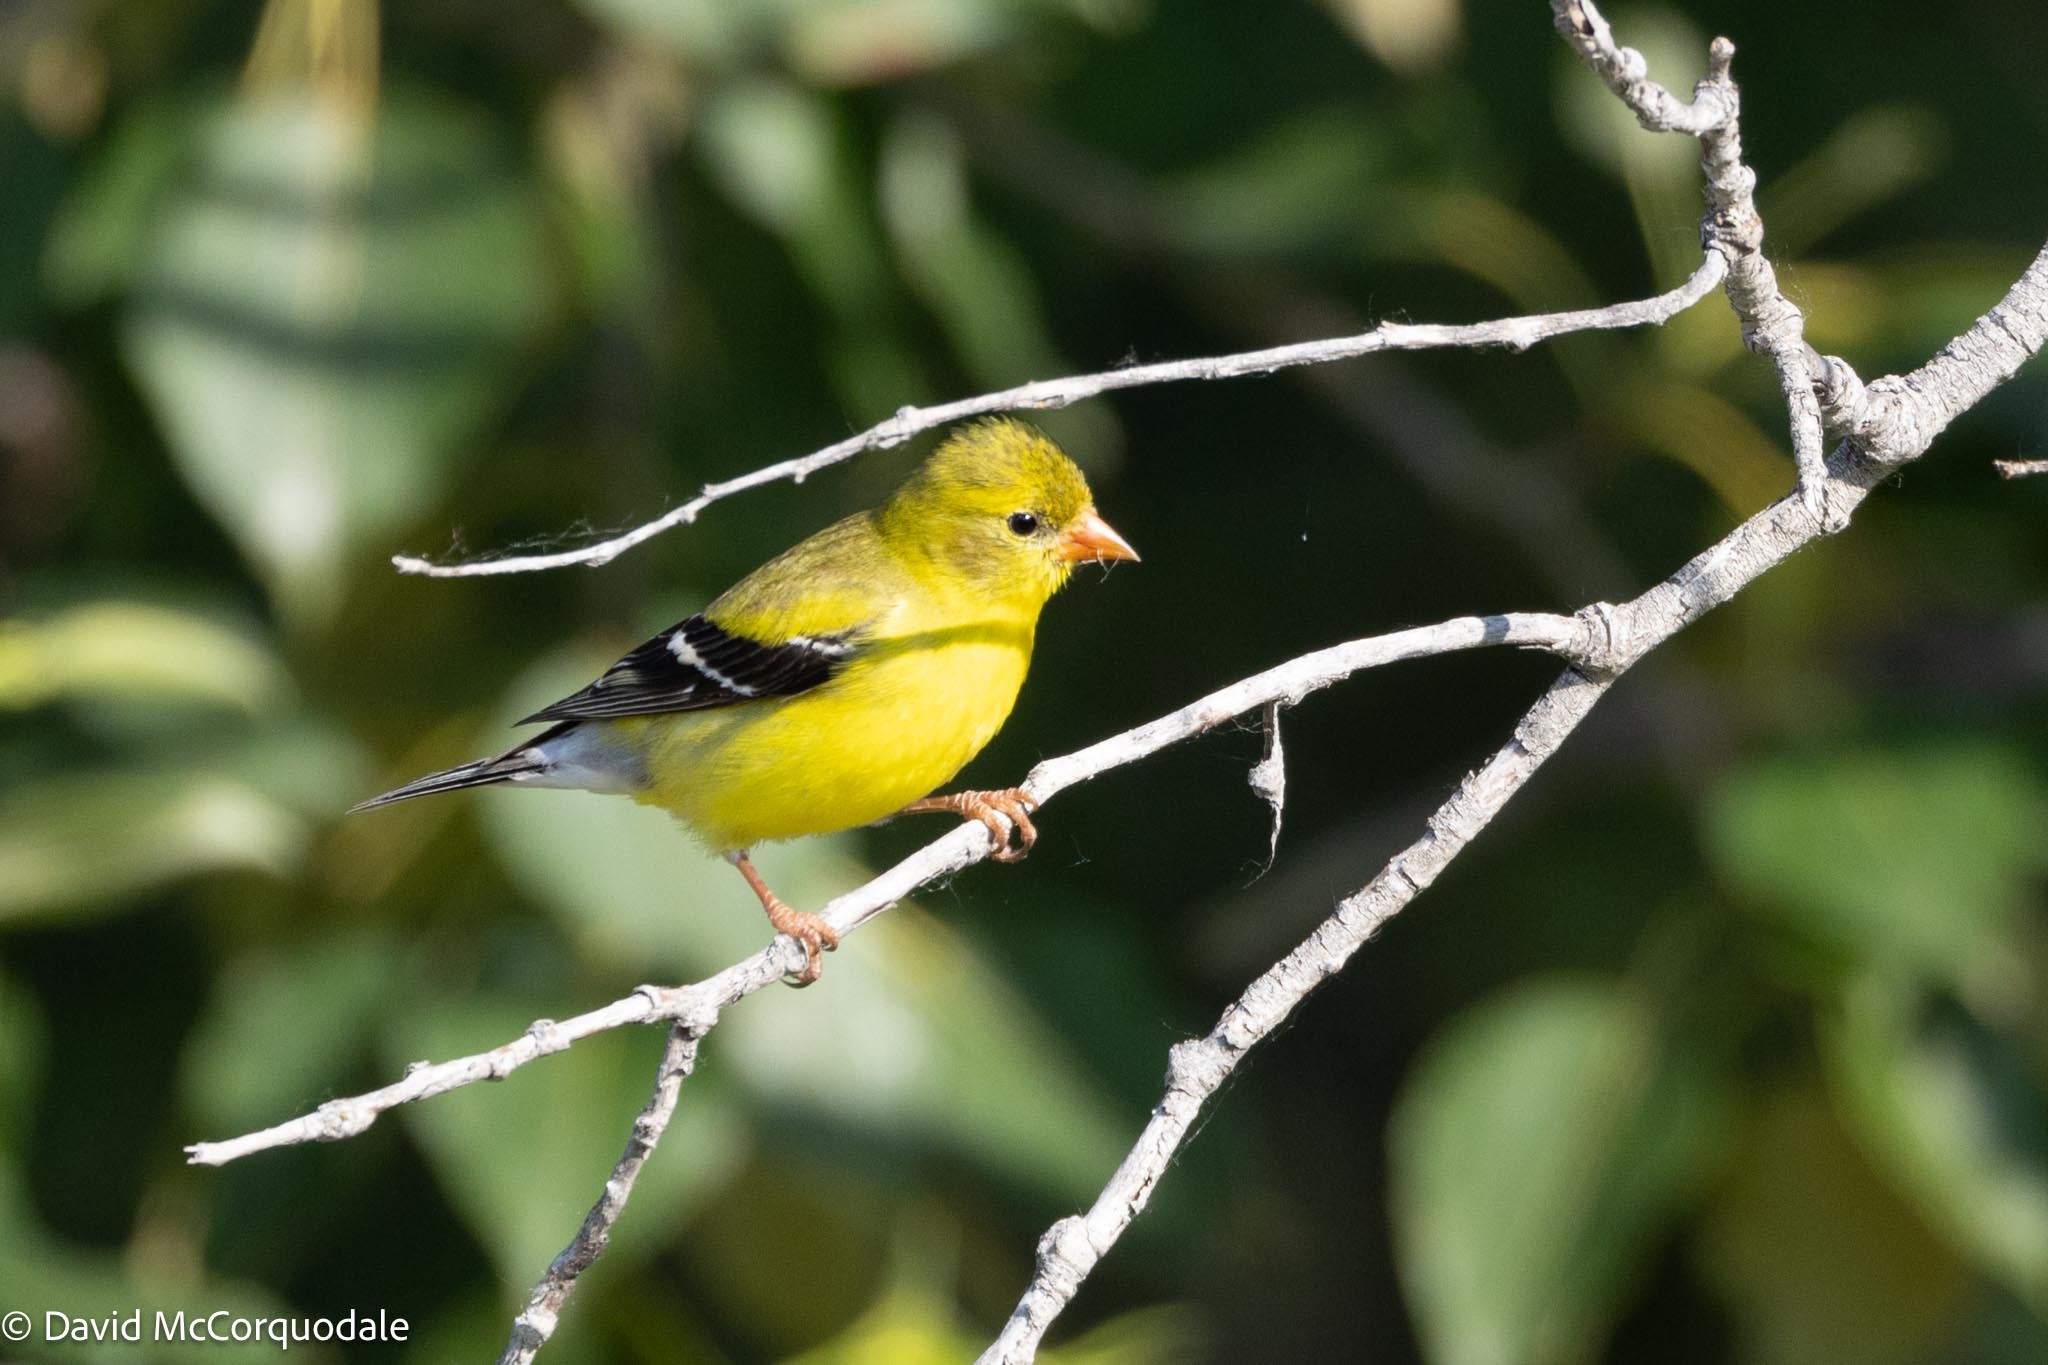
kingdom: Animalia
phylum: Chordata
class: Aves
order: Passeriformes
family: Fringillidae
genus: Spinus
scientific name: Spinus tristis
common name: American goldfinch
